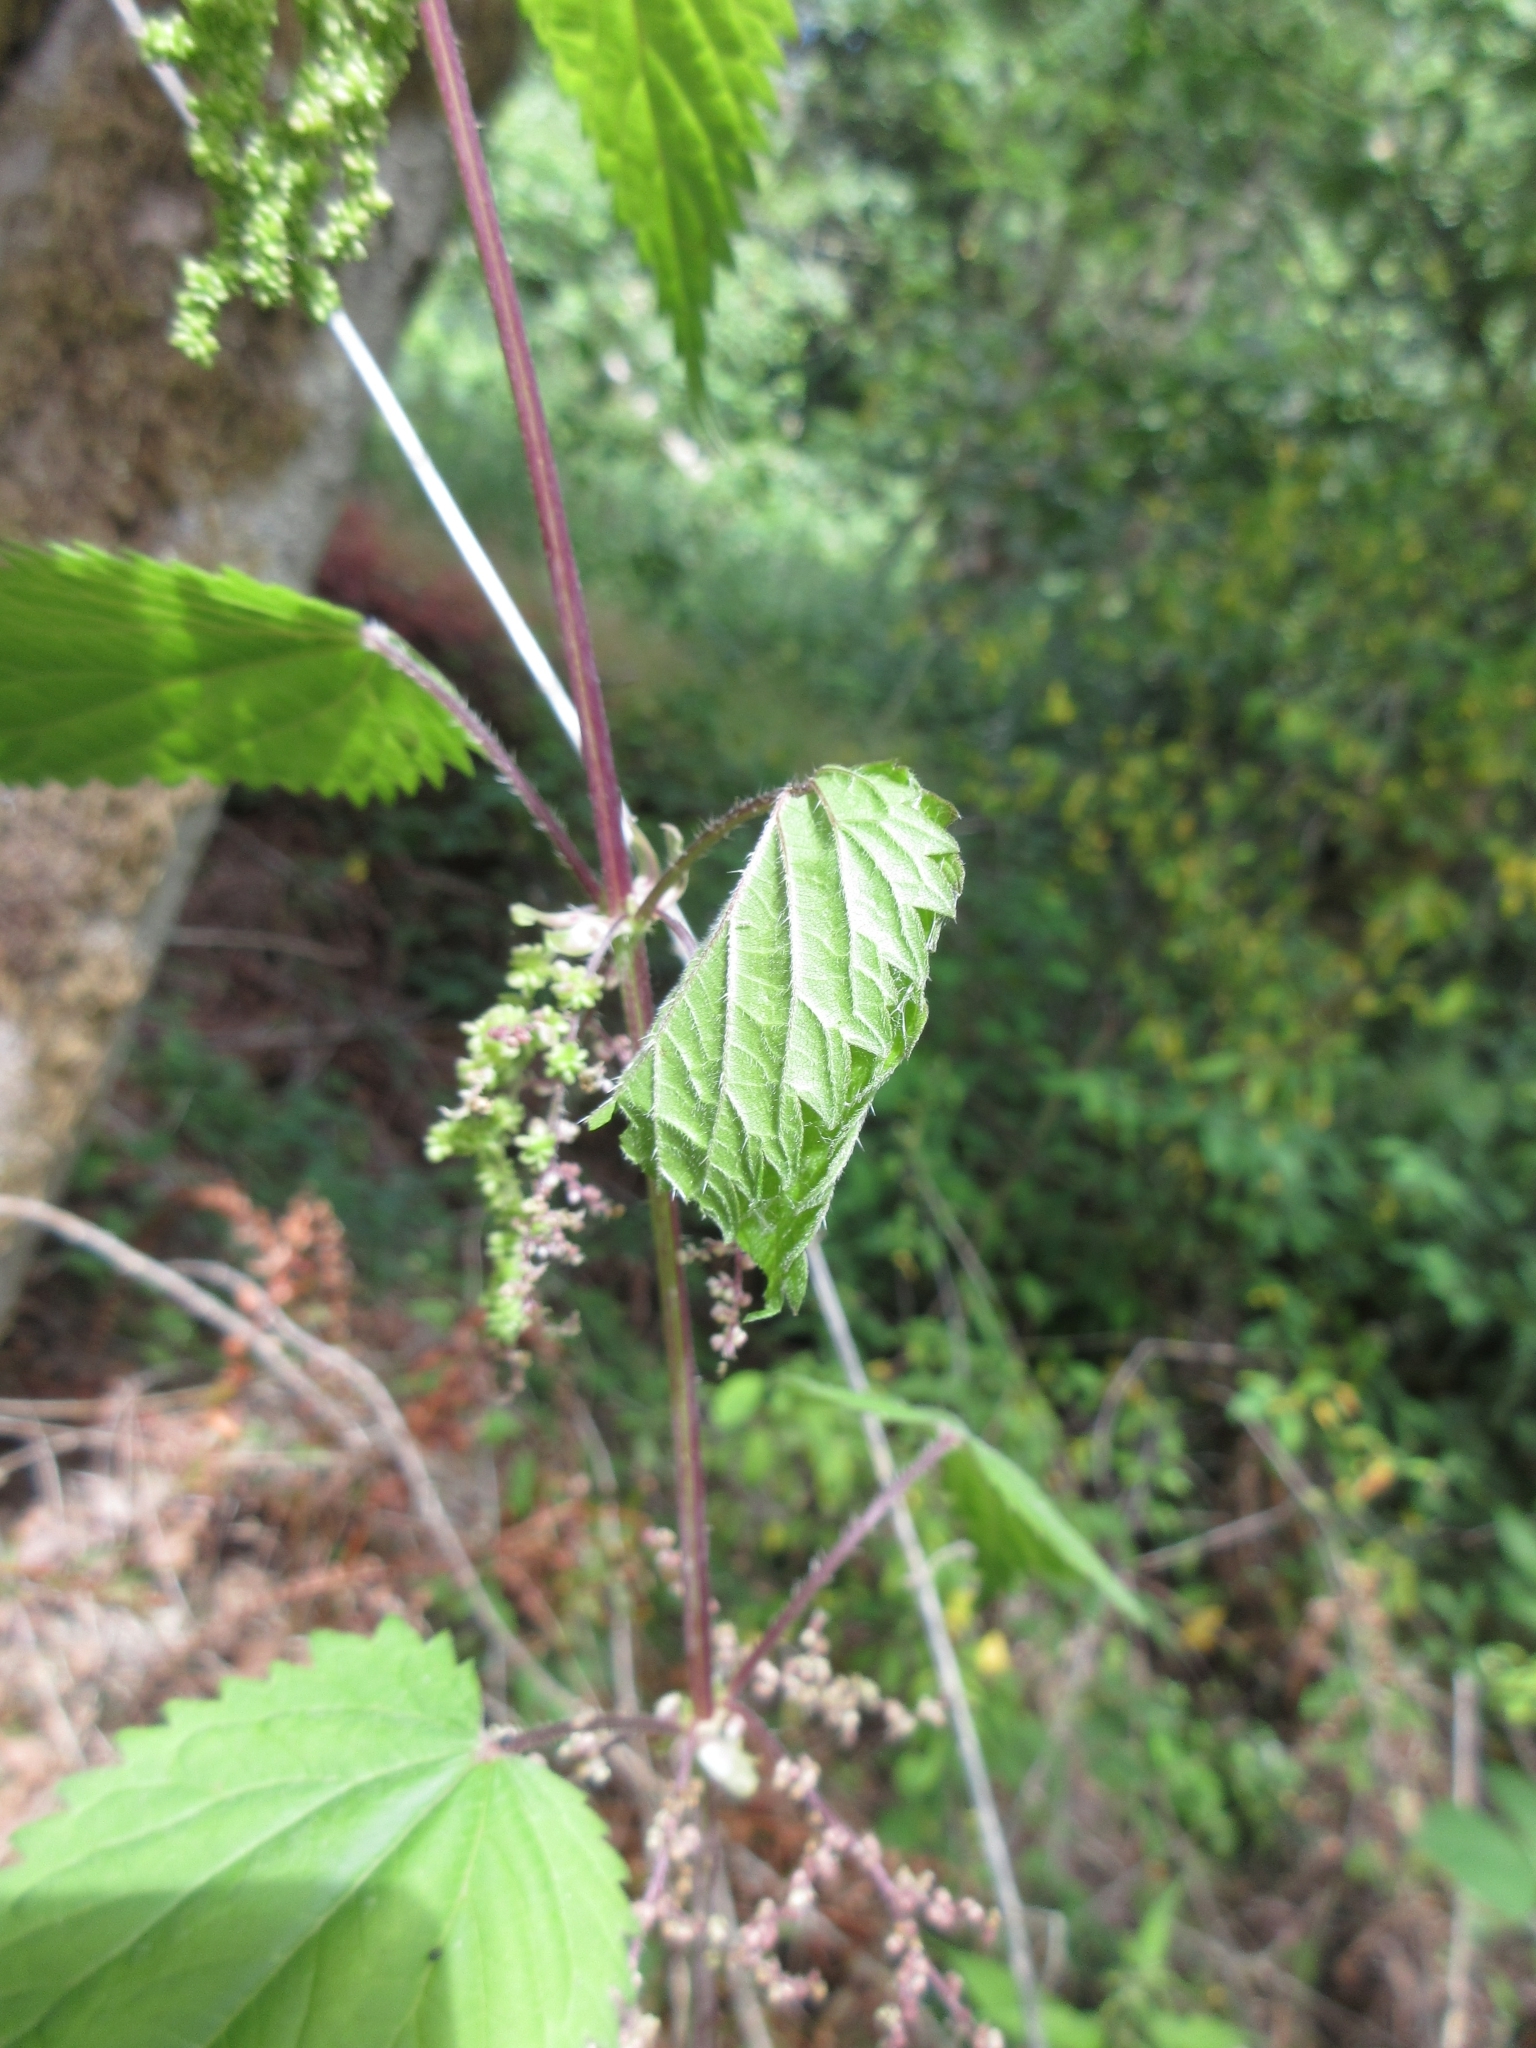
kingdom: Animalia
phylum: Arthropoda
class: Insecta
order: Lepidoptera
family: Nymphalidae
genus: Vanessa
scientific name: Vanessa atalanta
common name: Red admiral
